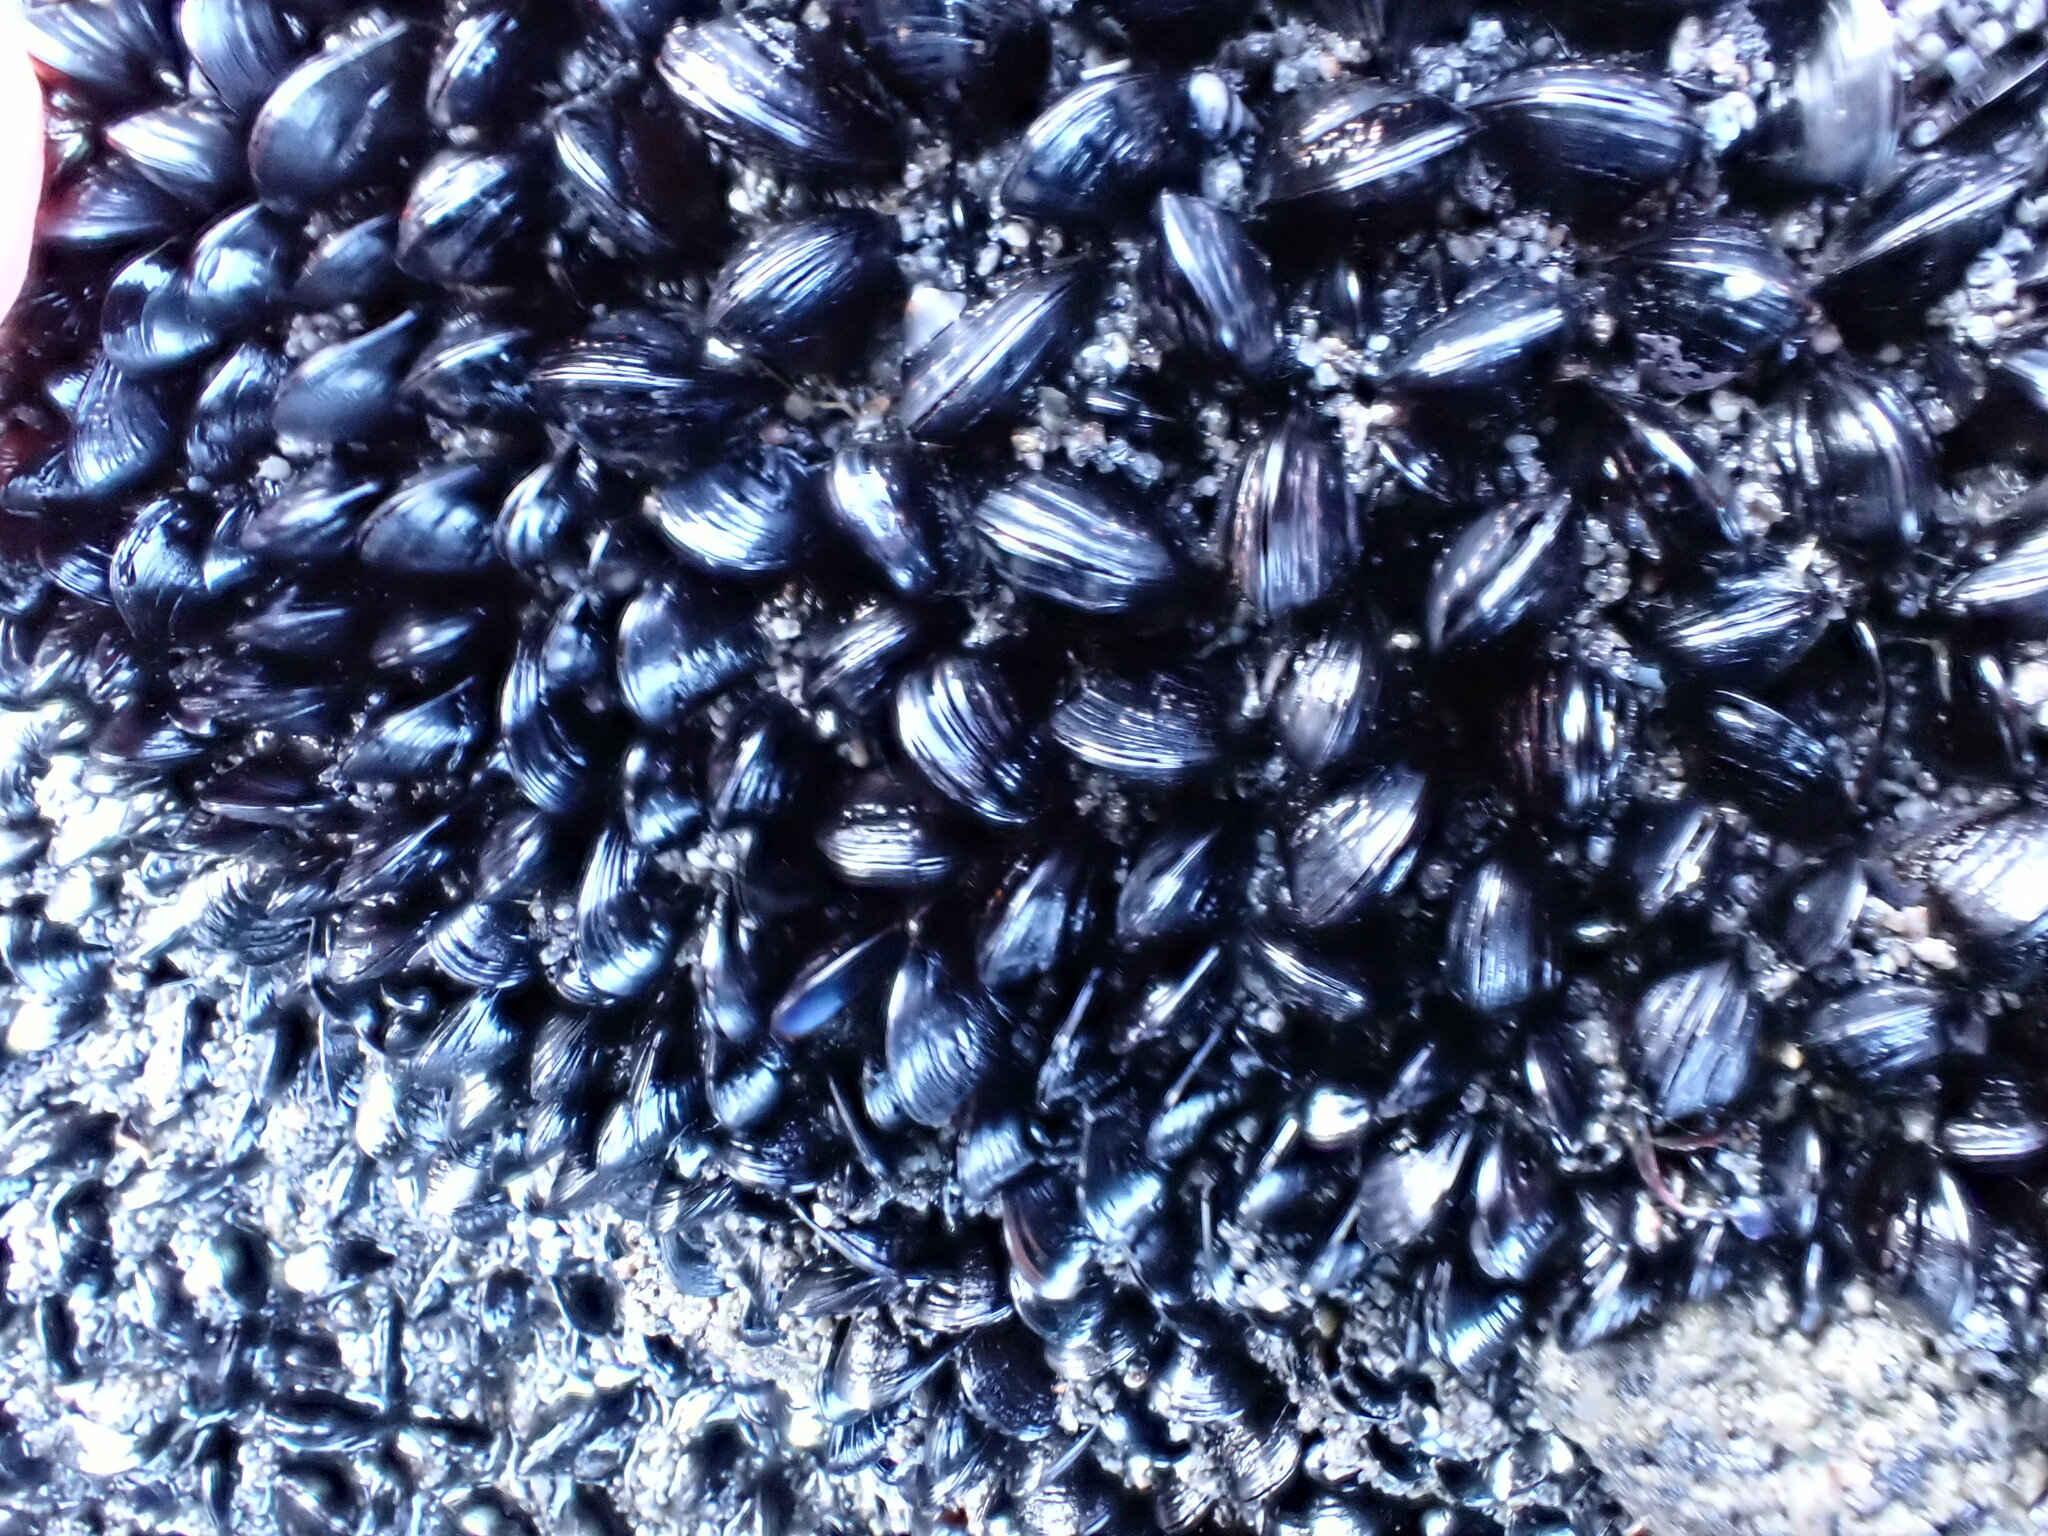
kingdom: Animalia
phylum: Mollusca
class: Bivalvia
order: Mytilida
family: Mytilidae
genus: Xenostrobus
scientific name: Xenostrobus neozelanicus
